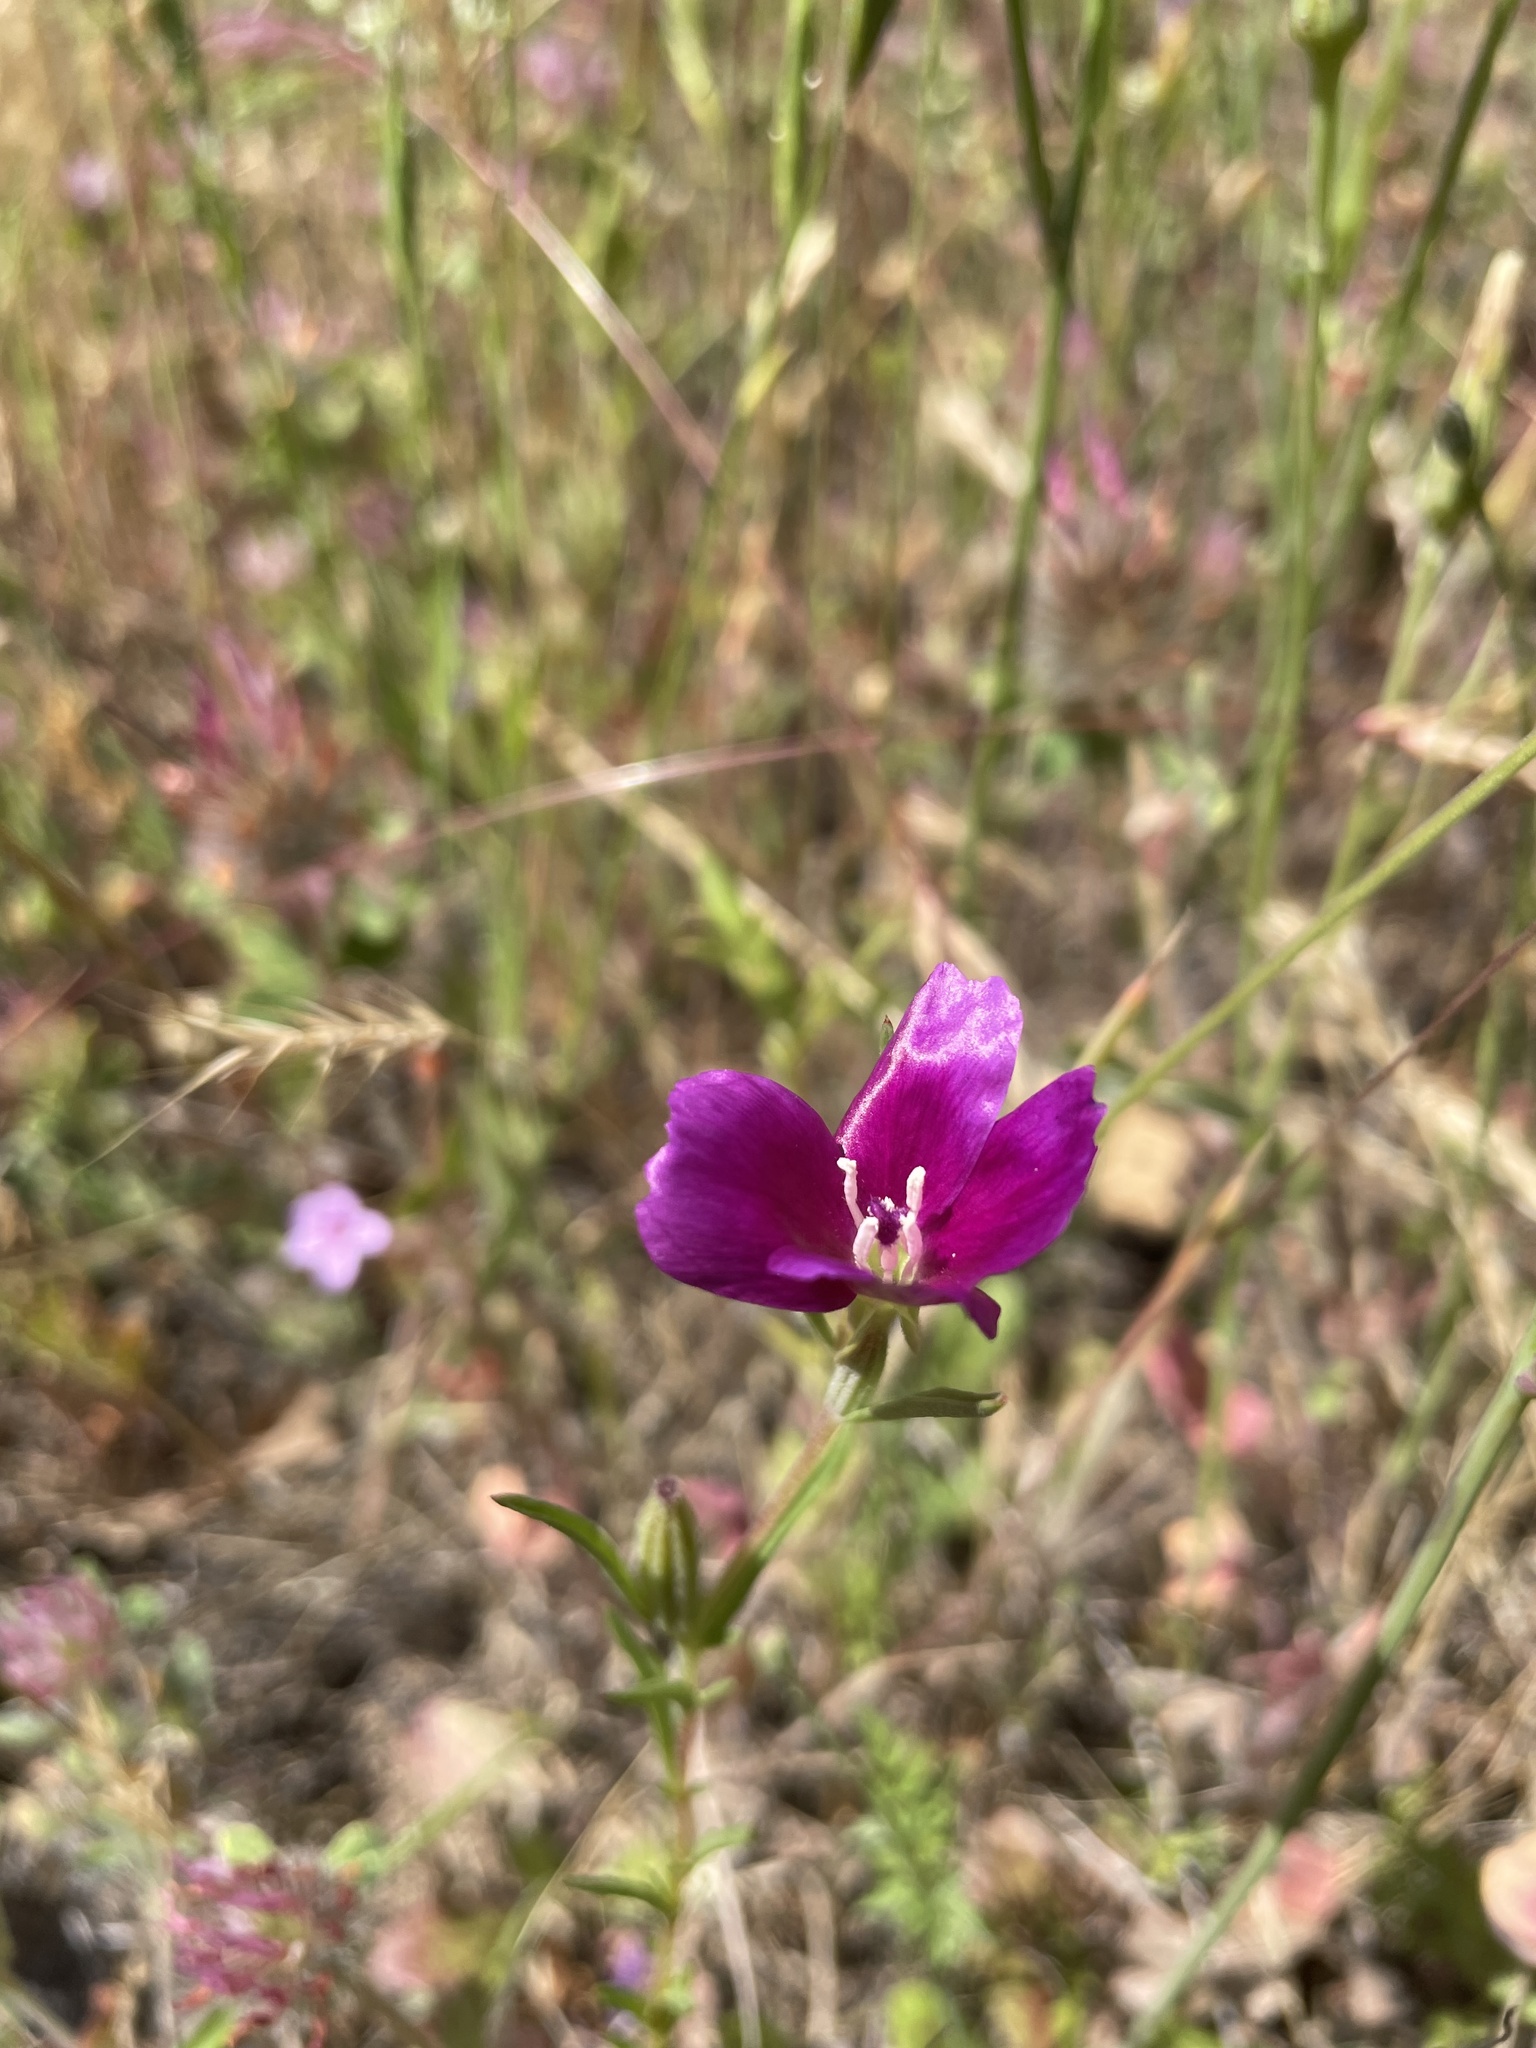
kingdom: Plantae
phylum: Tracheophyta
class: Magnoliopsida
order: Myrtales
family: Onagraceae
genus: Clarkia
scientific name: Clarkia purpurea
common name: Purple clarkia
